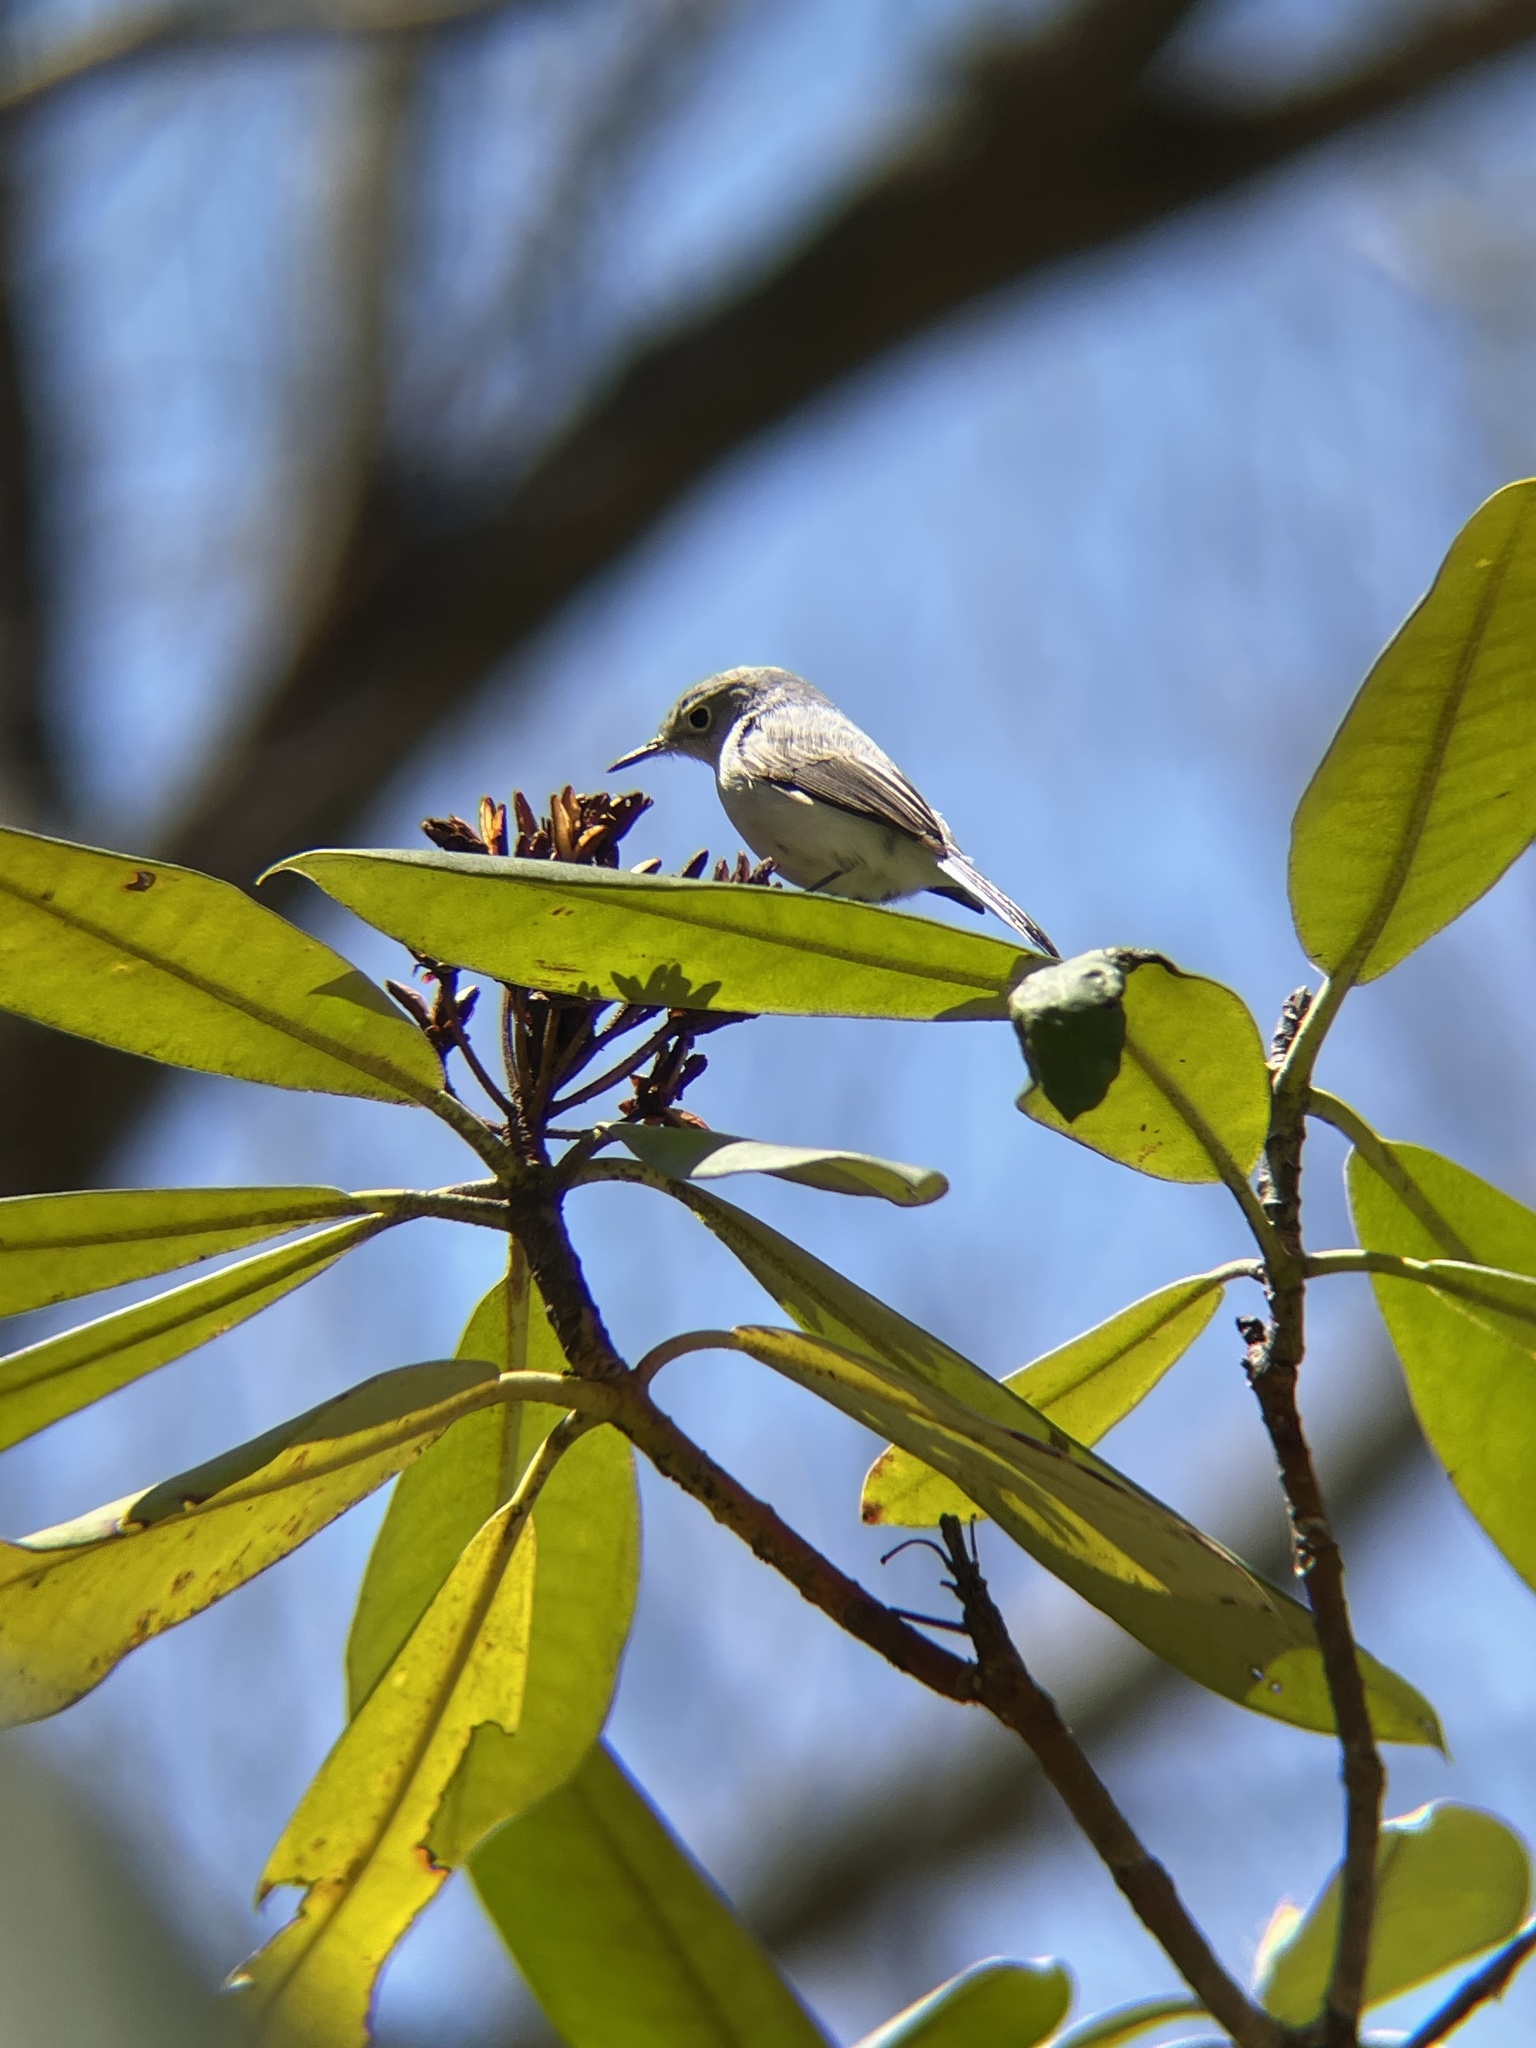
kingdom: Animalia
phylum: Chordata
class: Aves
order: Passeriformes
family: Polioptilidae
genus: Polioptila
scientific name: Polioptila caerulea
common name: Blue-gray gnatcatcher
